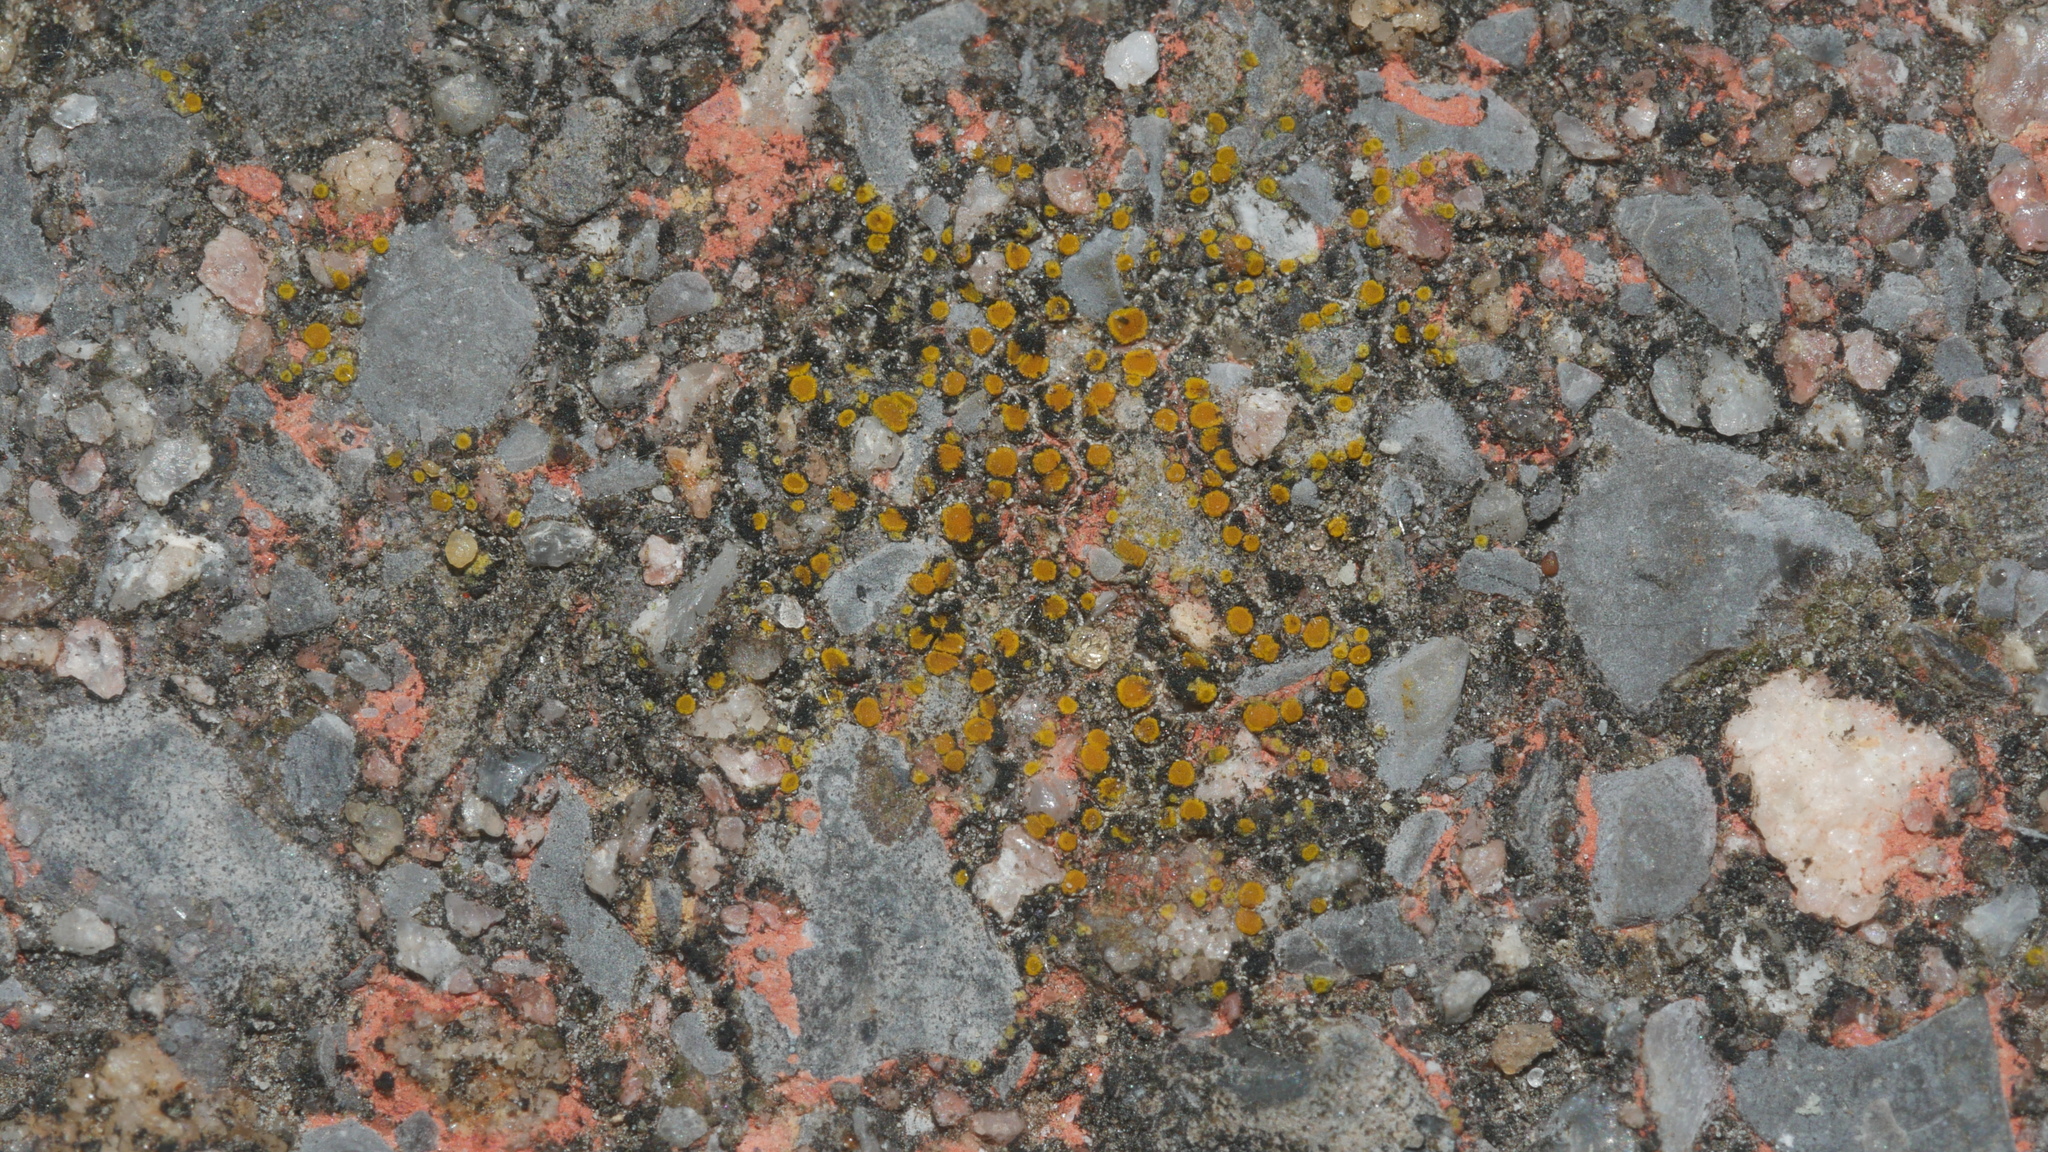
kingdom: Fungi
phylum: Ascomycota
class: Lecanoromycetes
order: Teloschistales
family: Teloschistaceae
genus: Xanthocarpia
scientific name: Xanthocarpia feracissima
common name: Sidewalk firedot
